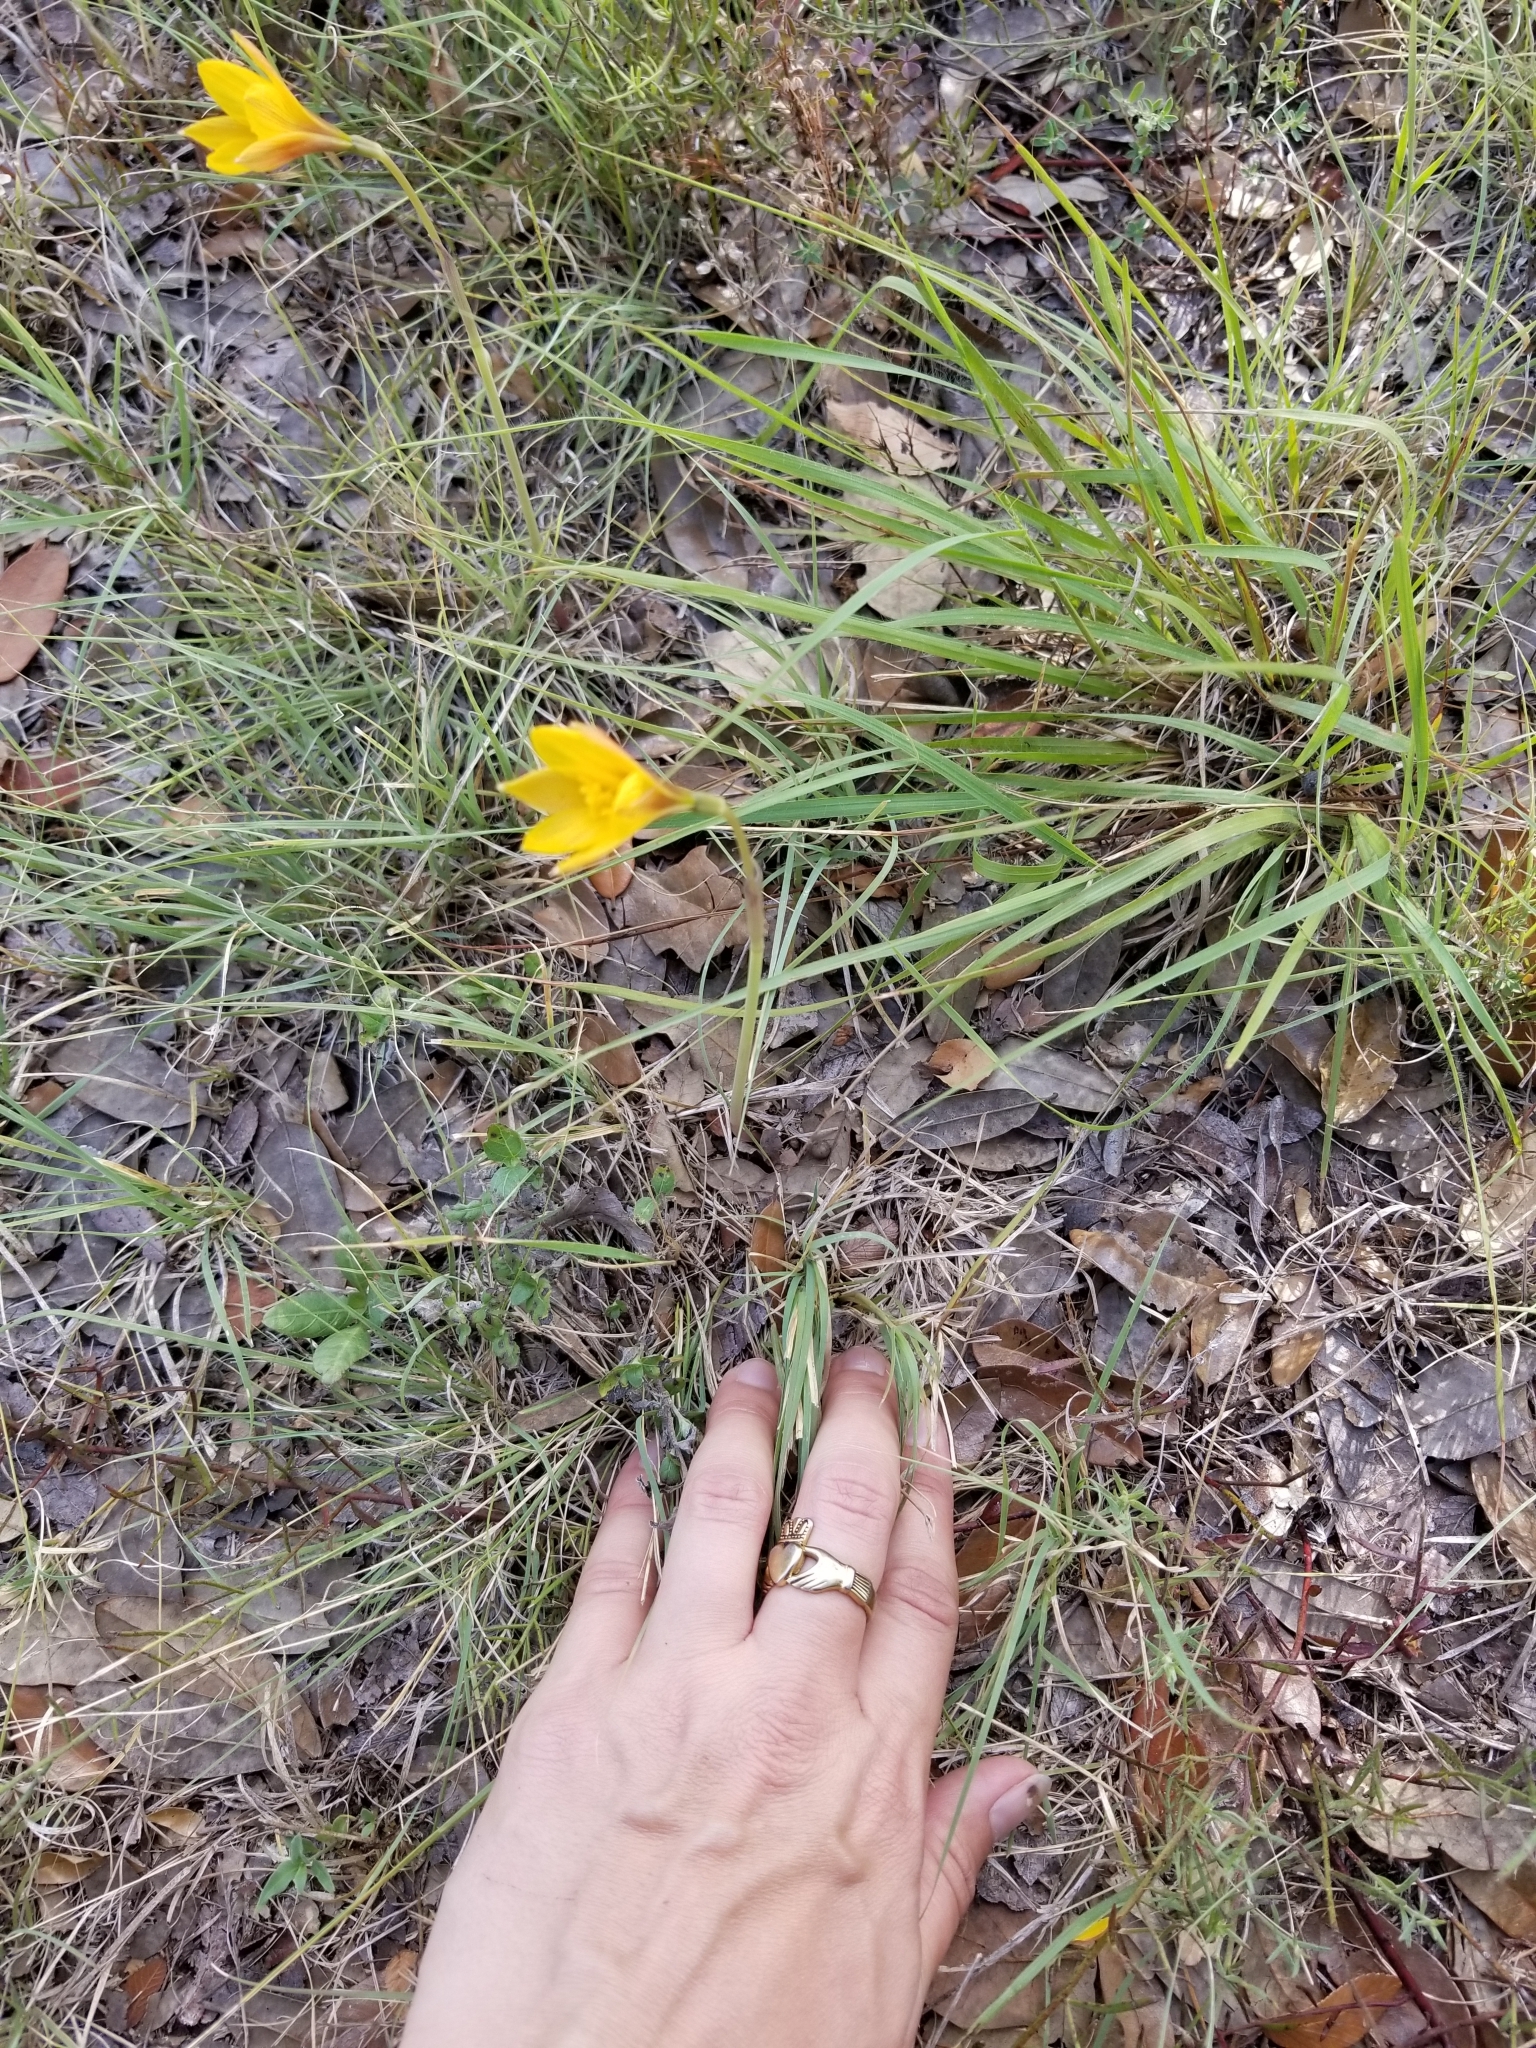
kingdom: Plantae
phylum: Tracheophyta
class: Liliopsida
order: Asparagales
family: Amaryllidaceae
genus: Zephyranthes
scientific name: Zephyranthes tubispatha
